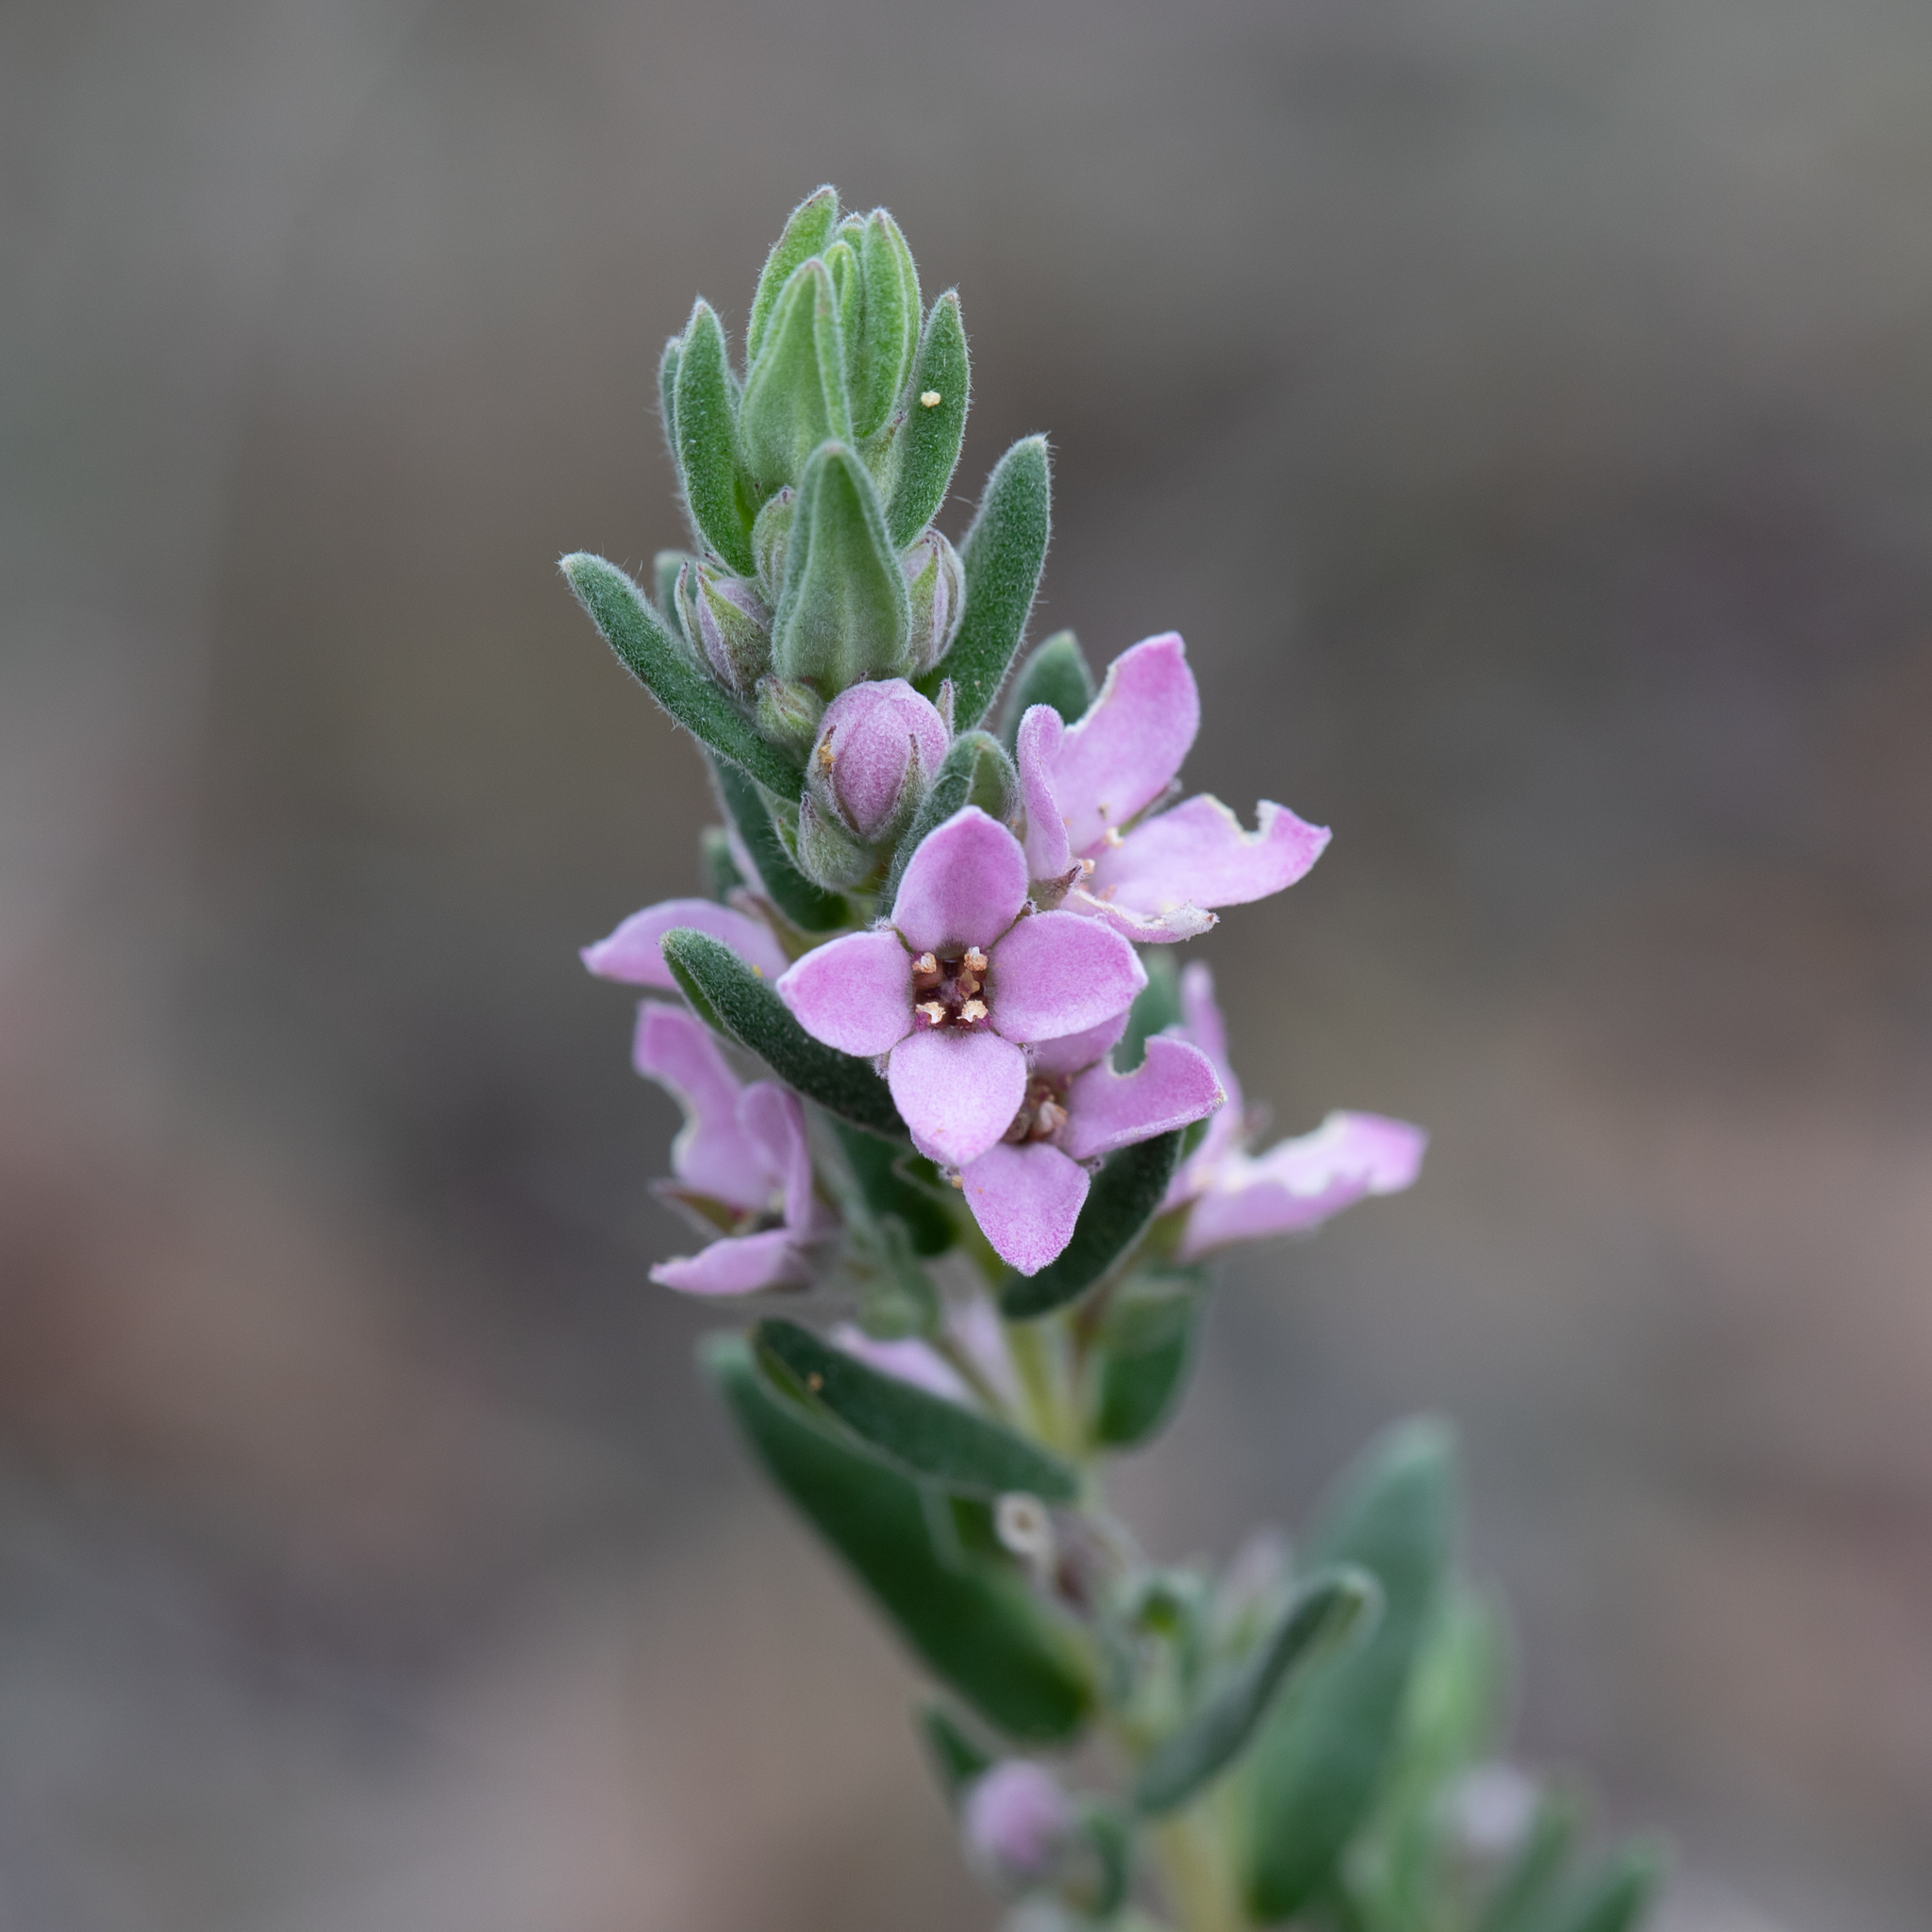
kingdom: Plantae
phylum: Tracheophyta
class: Magnoliopsida
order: Sapindales
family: Rutaceae
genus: Zieria
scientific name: Zieria veronicea
